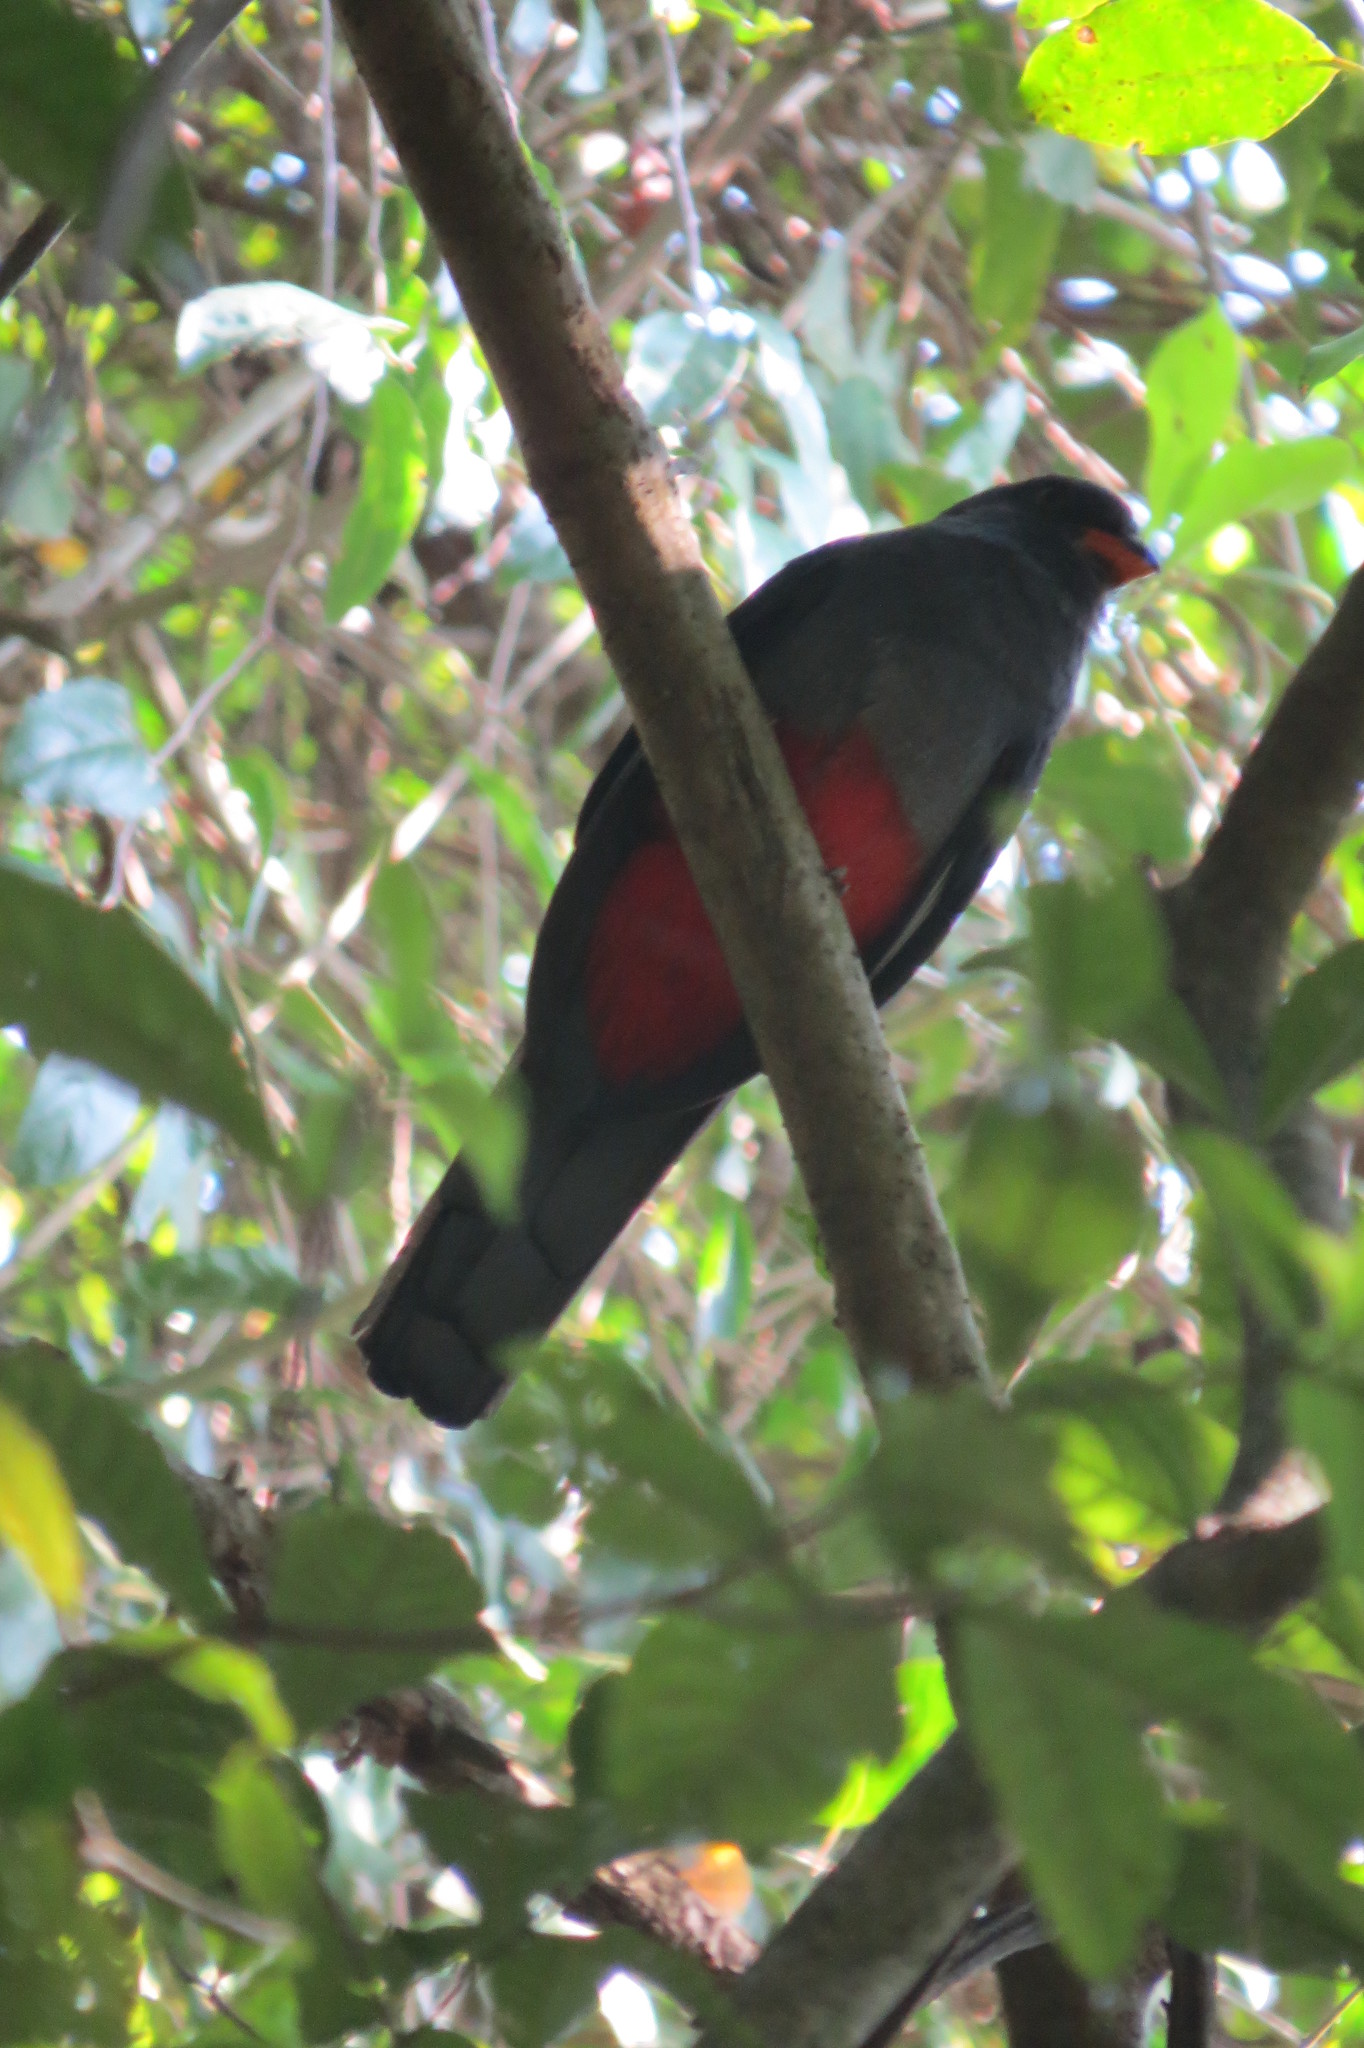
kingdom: Animalia
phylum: Chordata
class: Aves
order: Trogoniformes
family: Trogonidae
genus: Trogon
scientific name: Trogon massena
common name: Slaty-tailed trogon
